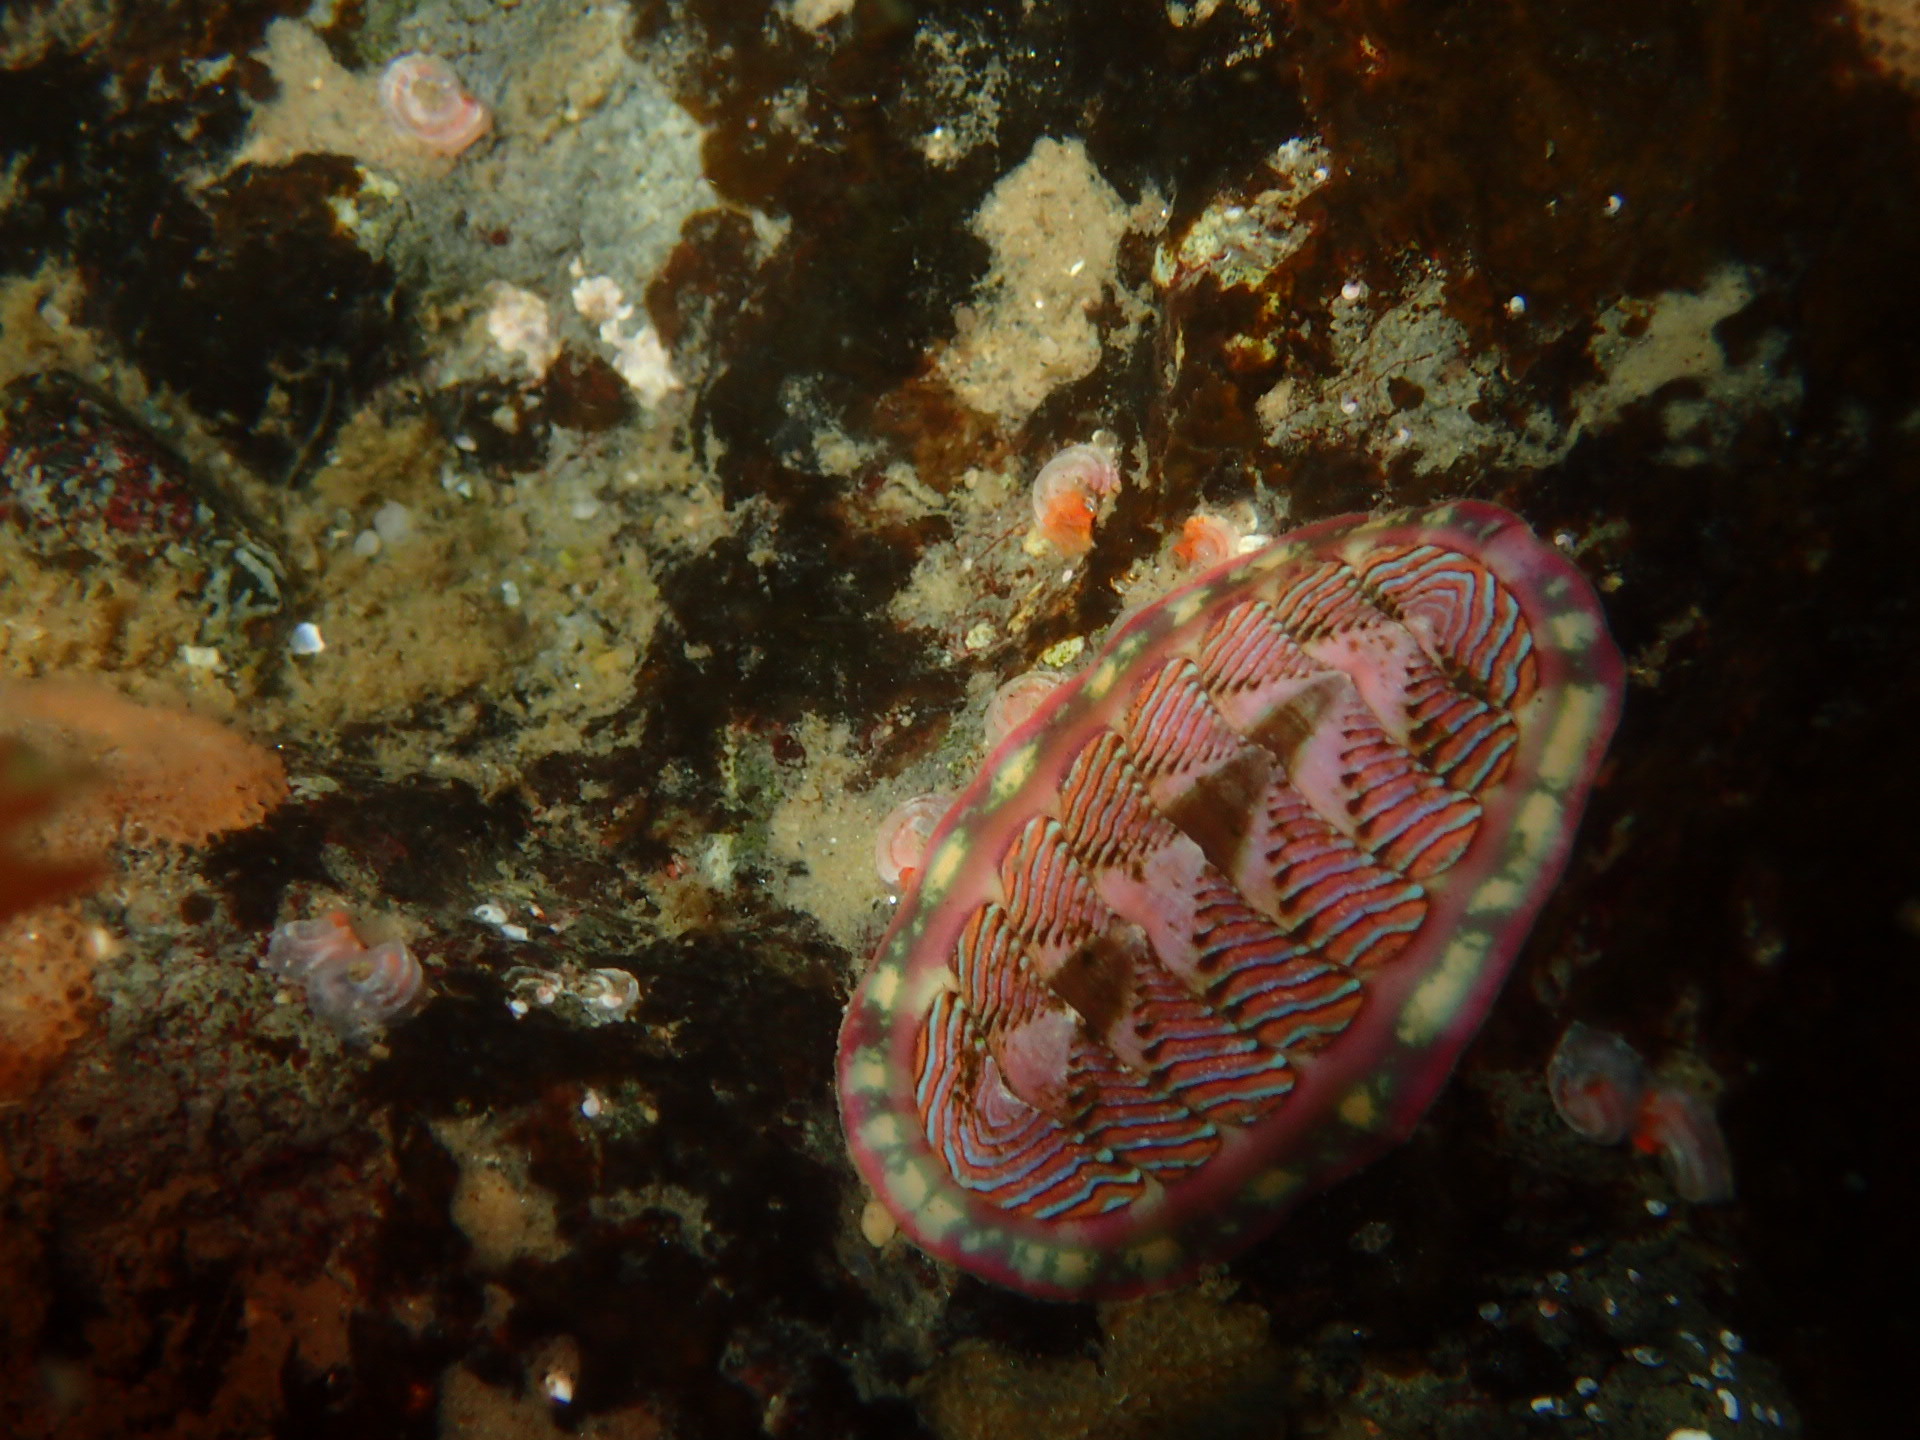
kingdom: Animalia
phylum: Mollusca
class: Polyplacophora
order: Chitonida
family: Tonicellidae
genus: Tonicella
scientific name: Tonicella lineata
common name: Lined chiton
